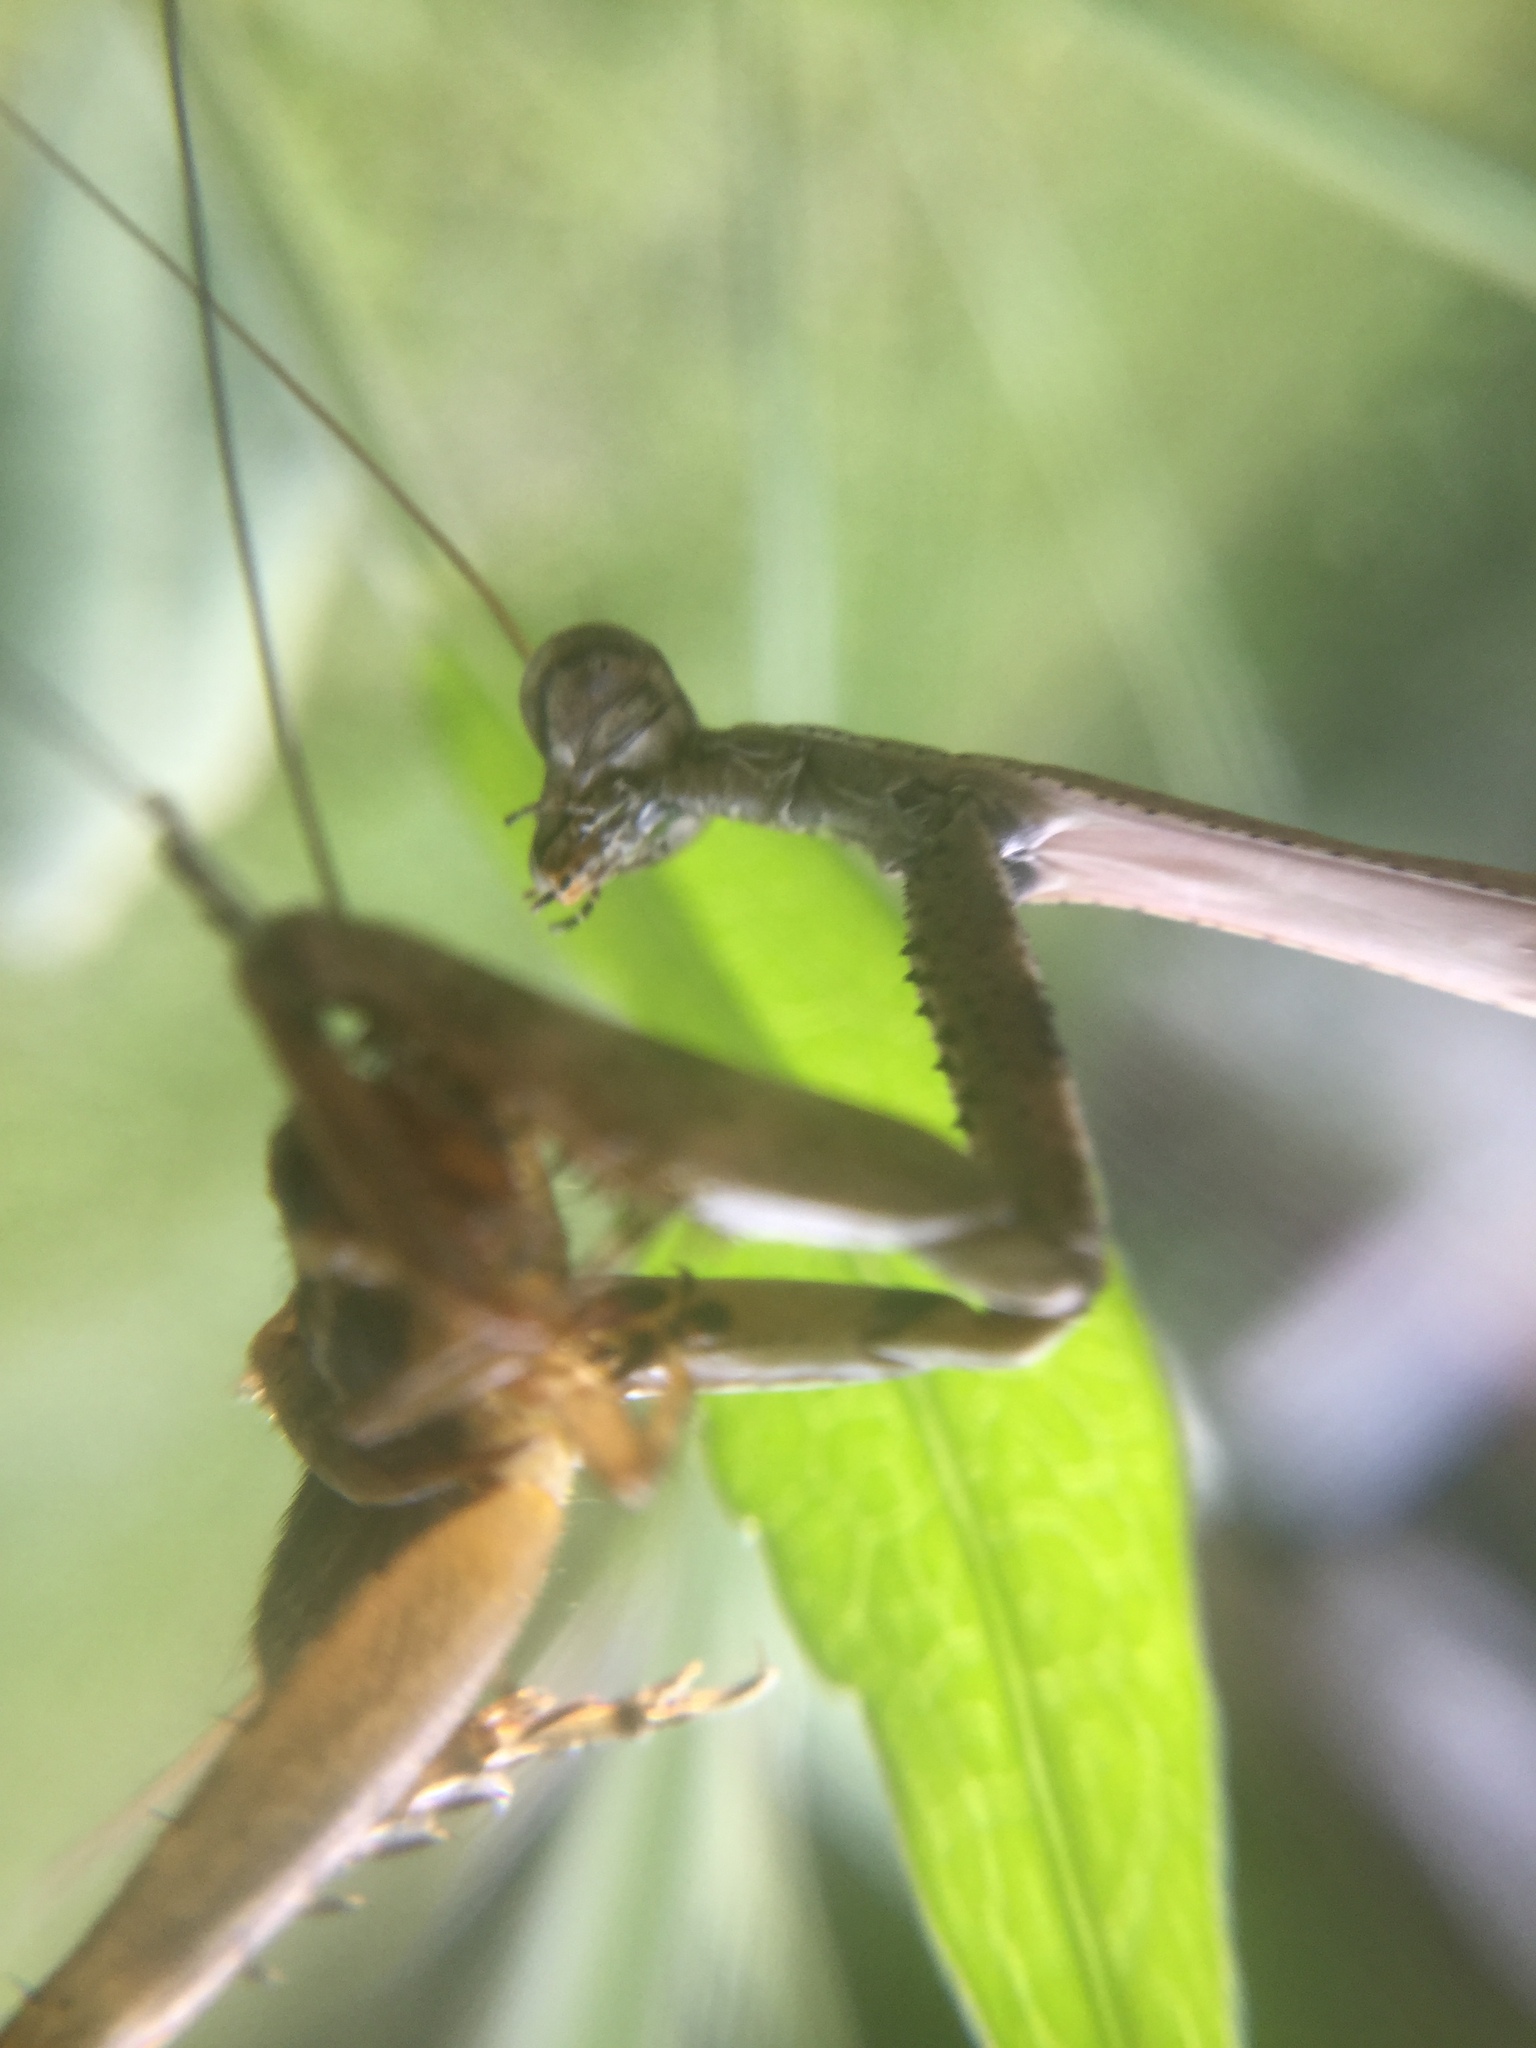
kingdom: Animalia
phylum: Arthropoda
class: Insecta
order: Mantodea
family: Mantidae
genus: Stagmomantis
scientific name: Stagmomantis carolina
